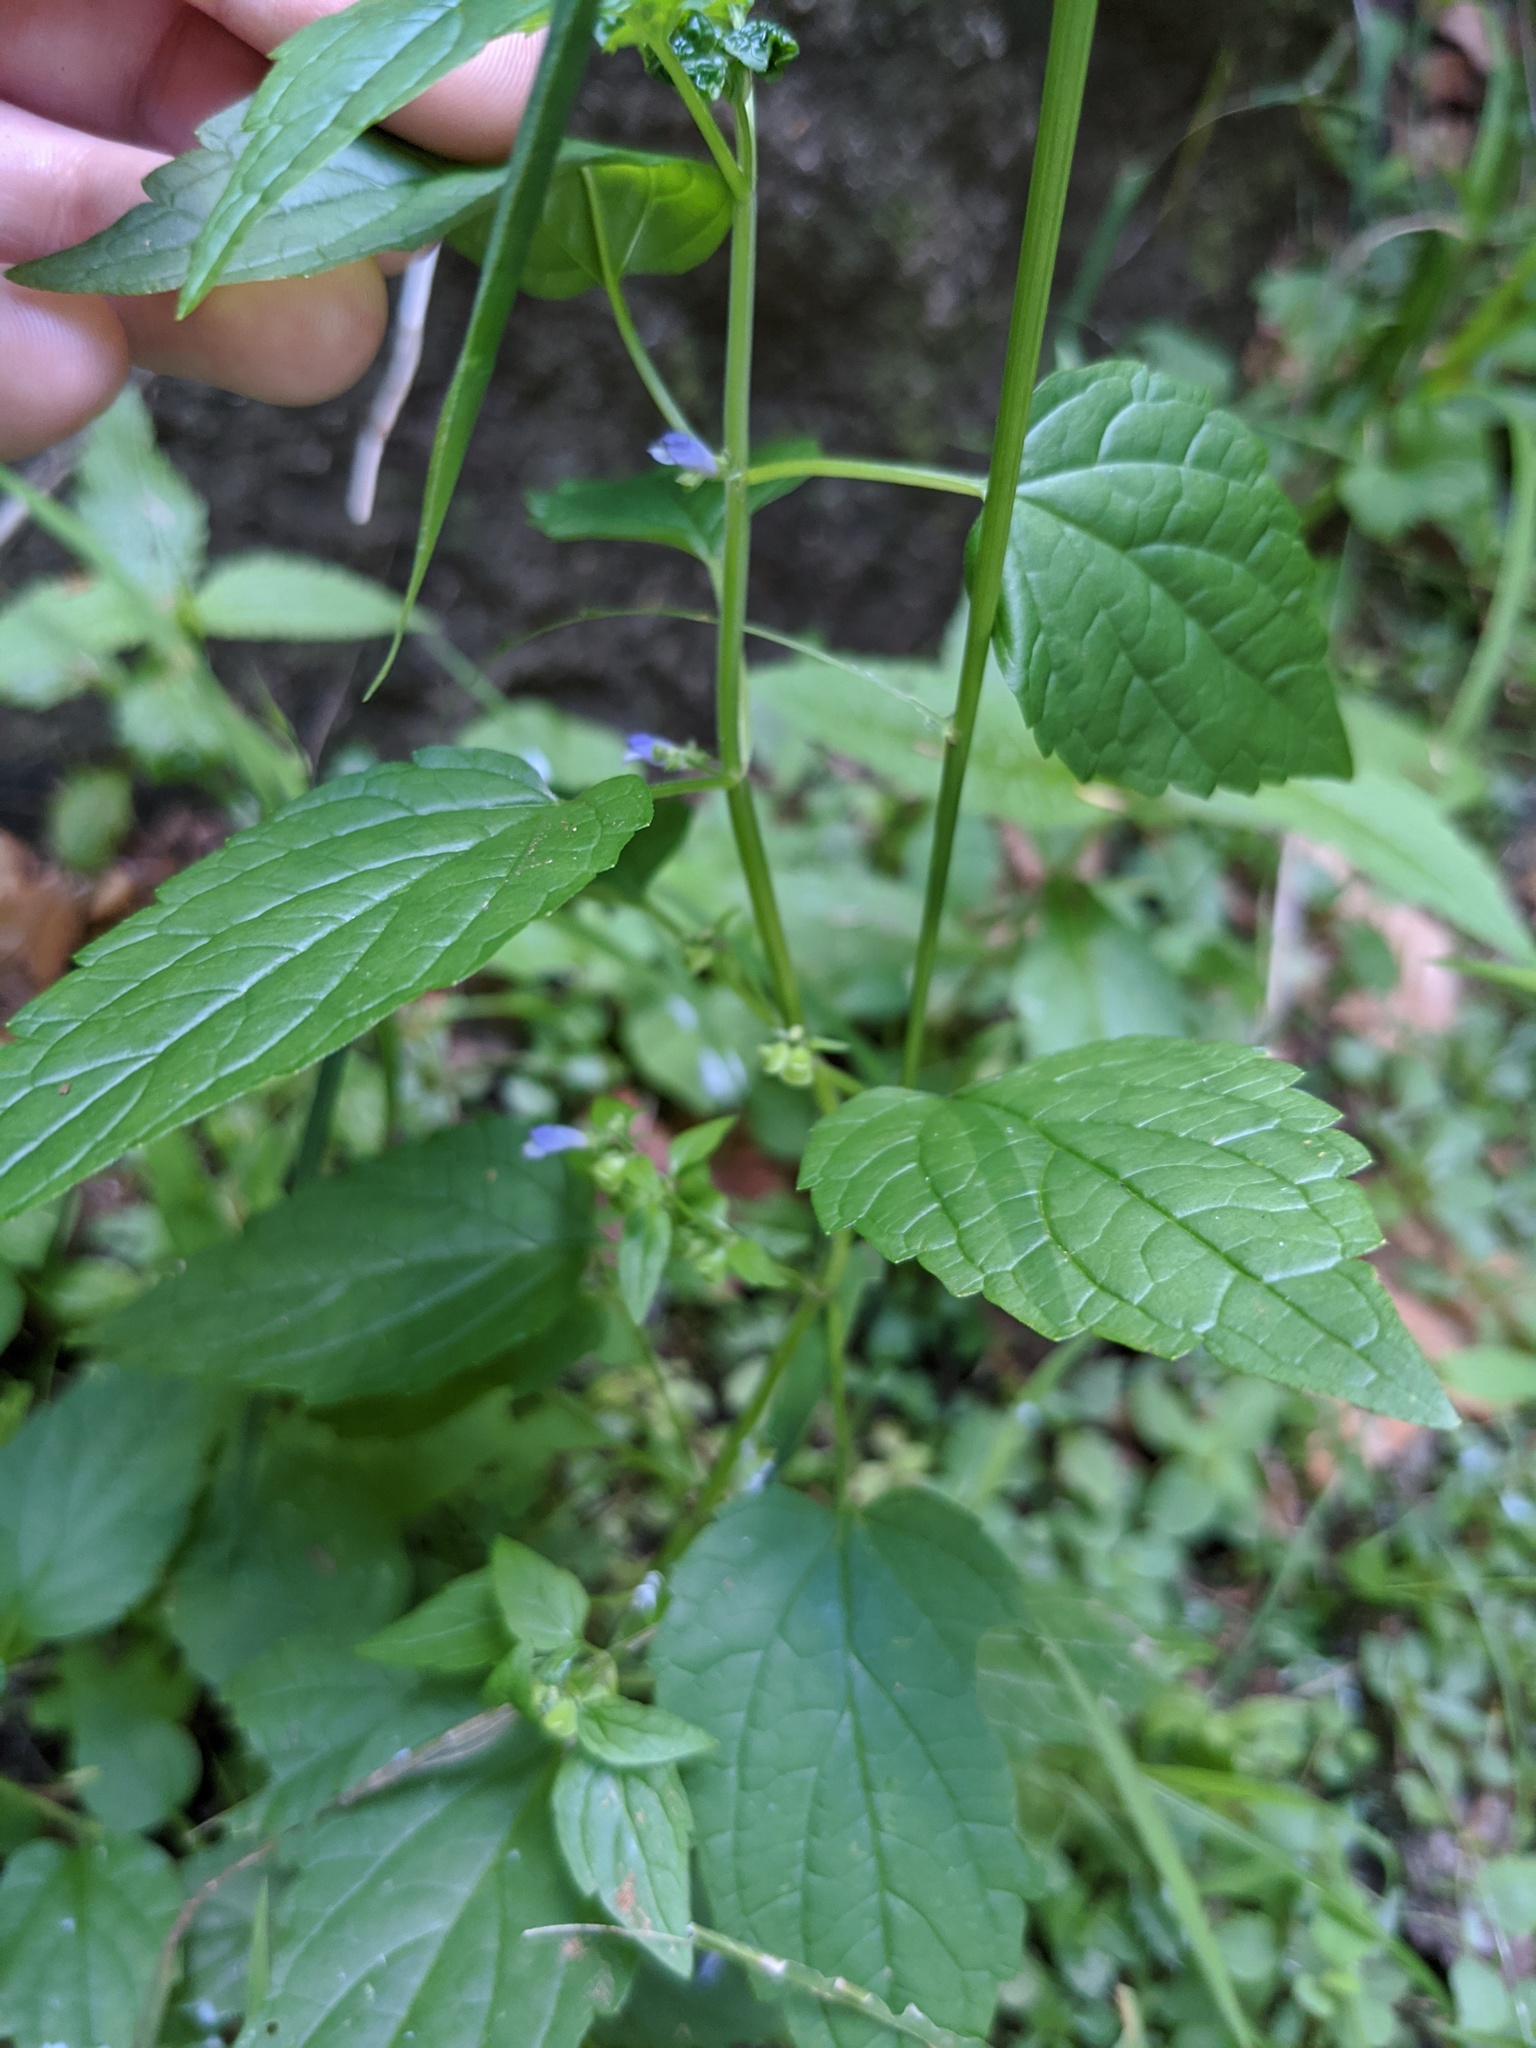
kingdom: Plantae
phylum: Tracheophyta
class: Magnoliopsida
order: Lamiales
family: Lamiaceae
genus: Scutellaria
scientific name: Scutellaria lateriflora
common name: Blue skullcap
